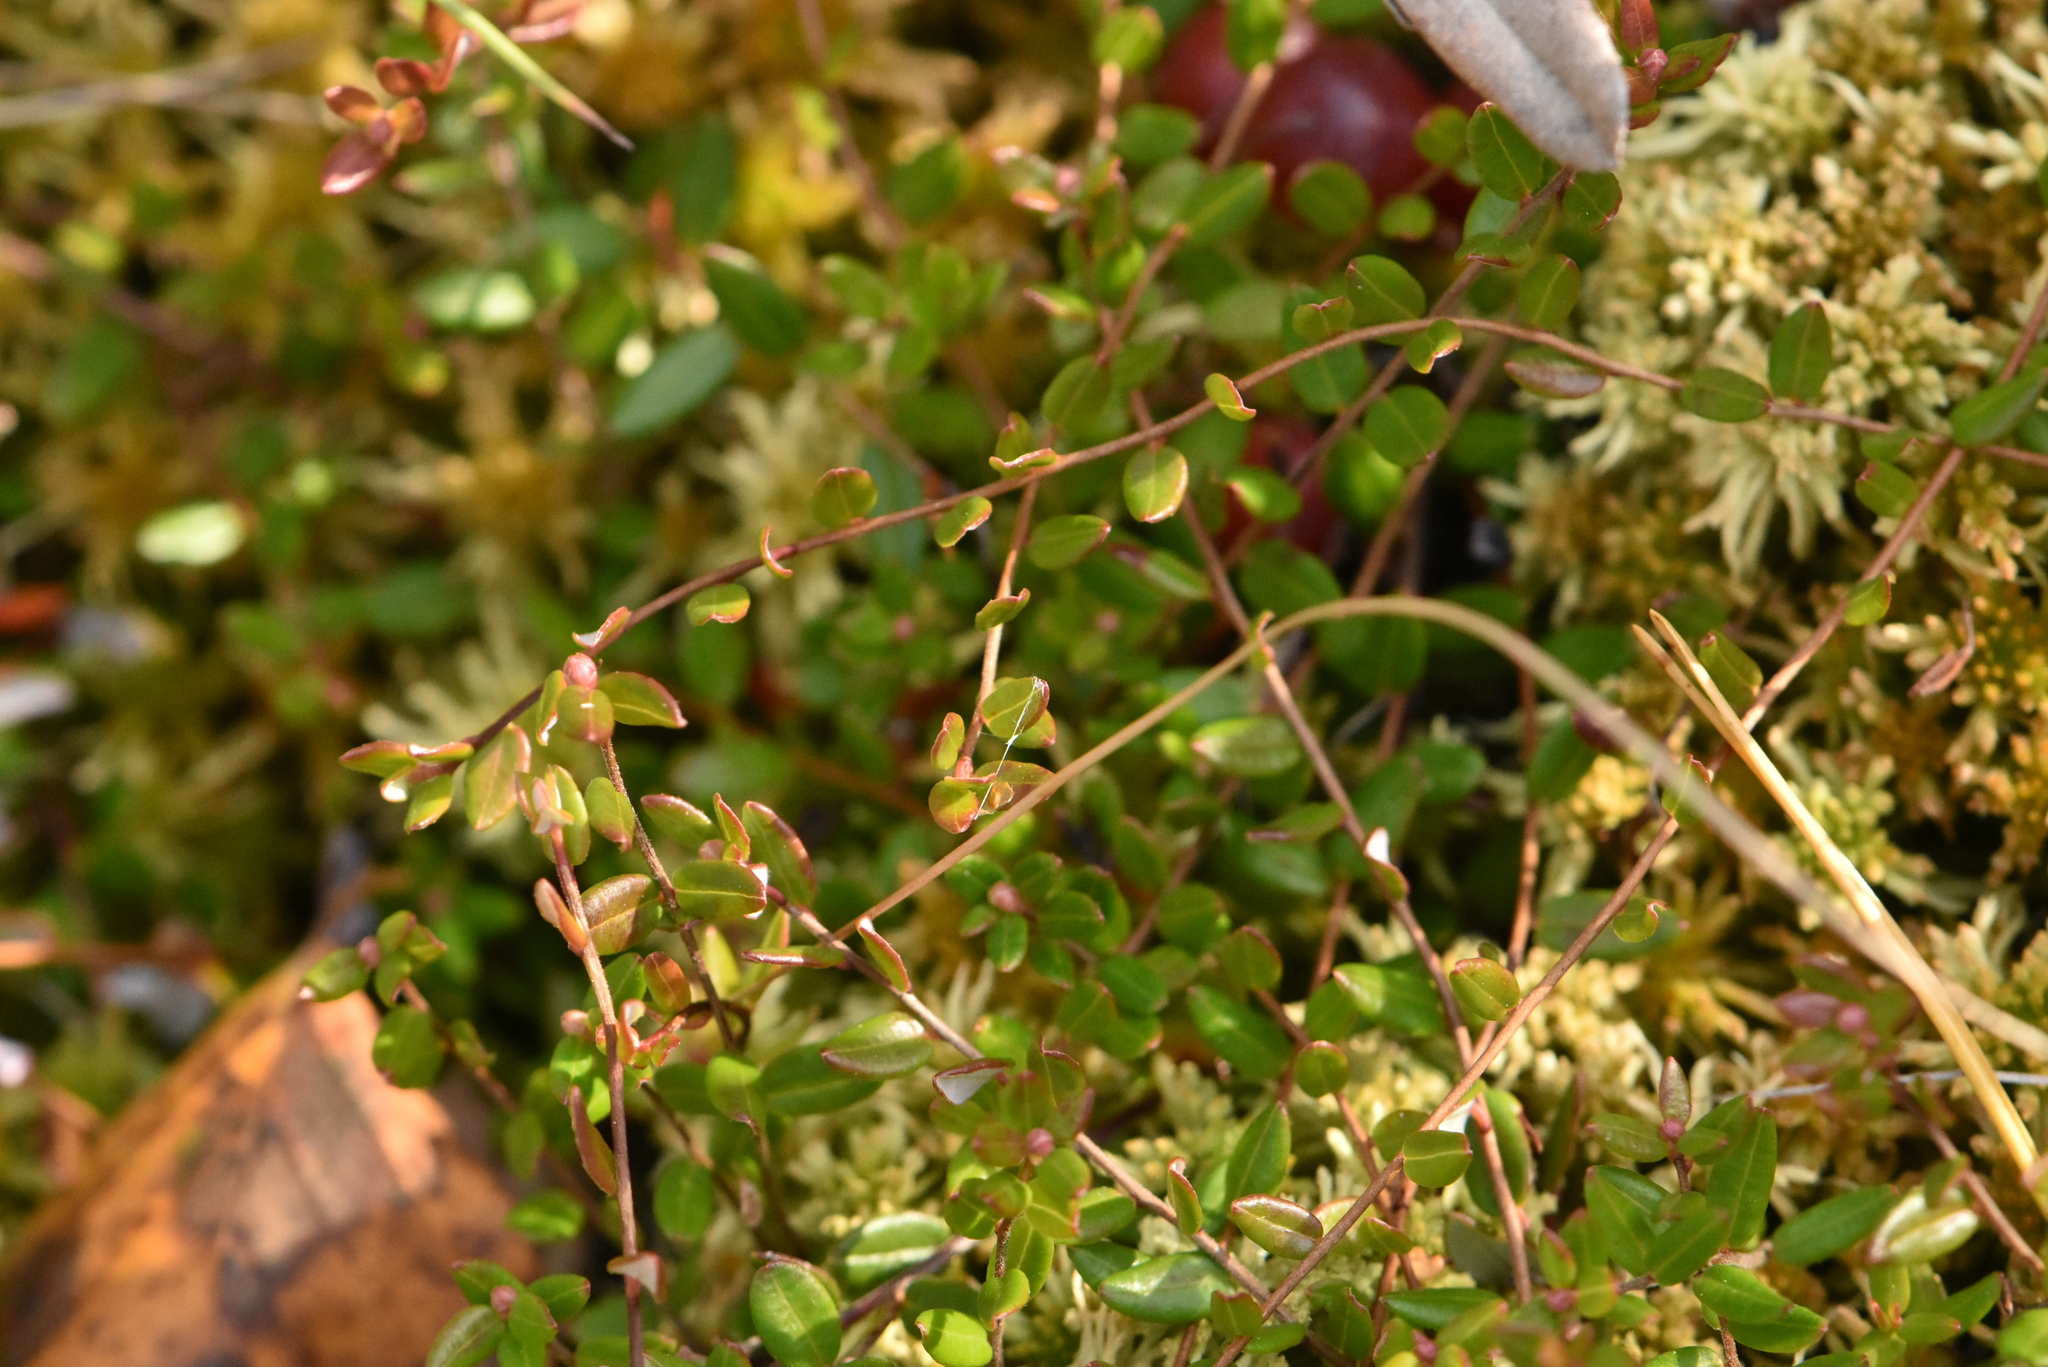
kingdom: Plantae
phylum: Tracheophyta
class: Magnoliopsida
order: Ericales
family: Ericaceae
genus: Vaccinium
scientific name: Vaccinium oxycoccos
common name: Cranberry
